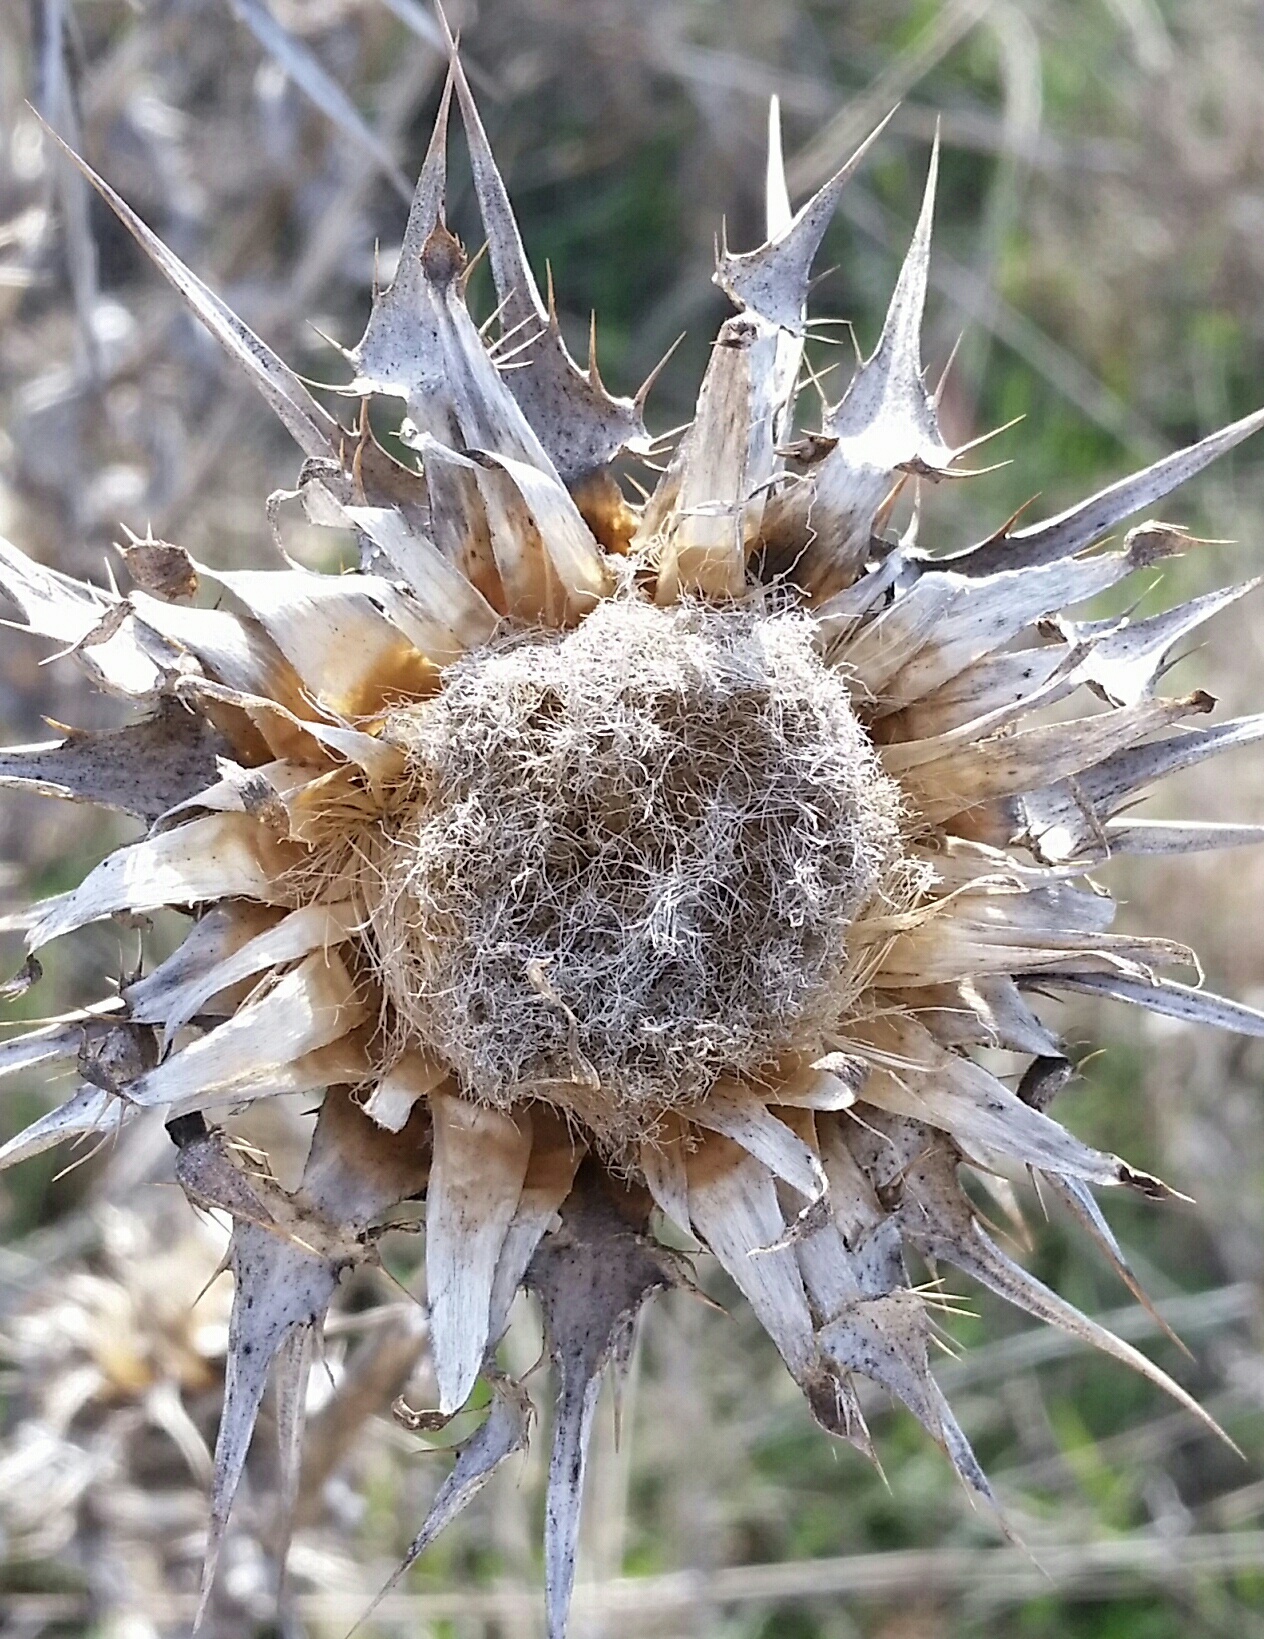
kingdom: Plantae
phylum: Tracheophyta
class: Magnoliopsida
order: Asterales
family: Asteraceae
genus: Cynara
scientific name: Cynara cardunculus
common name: Globe artichoke
